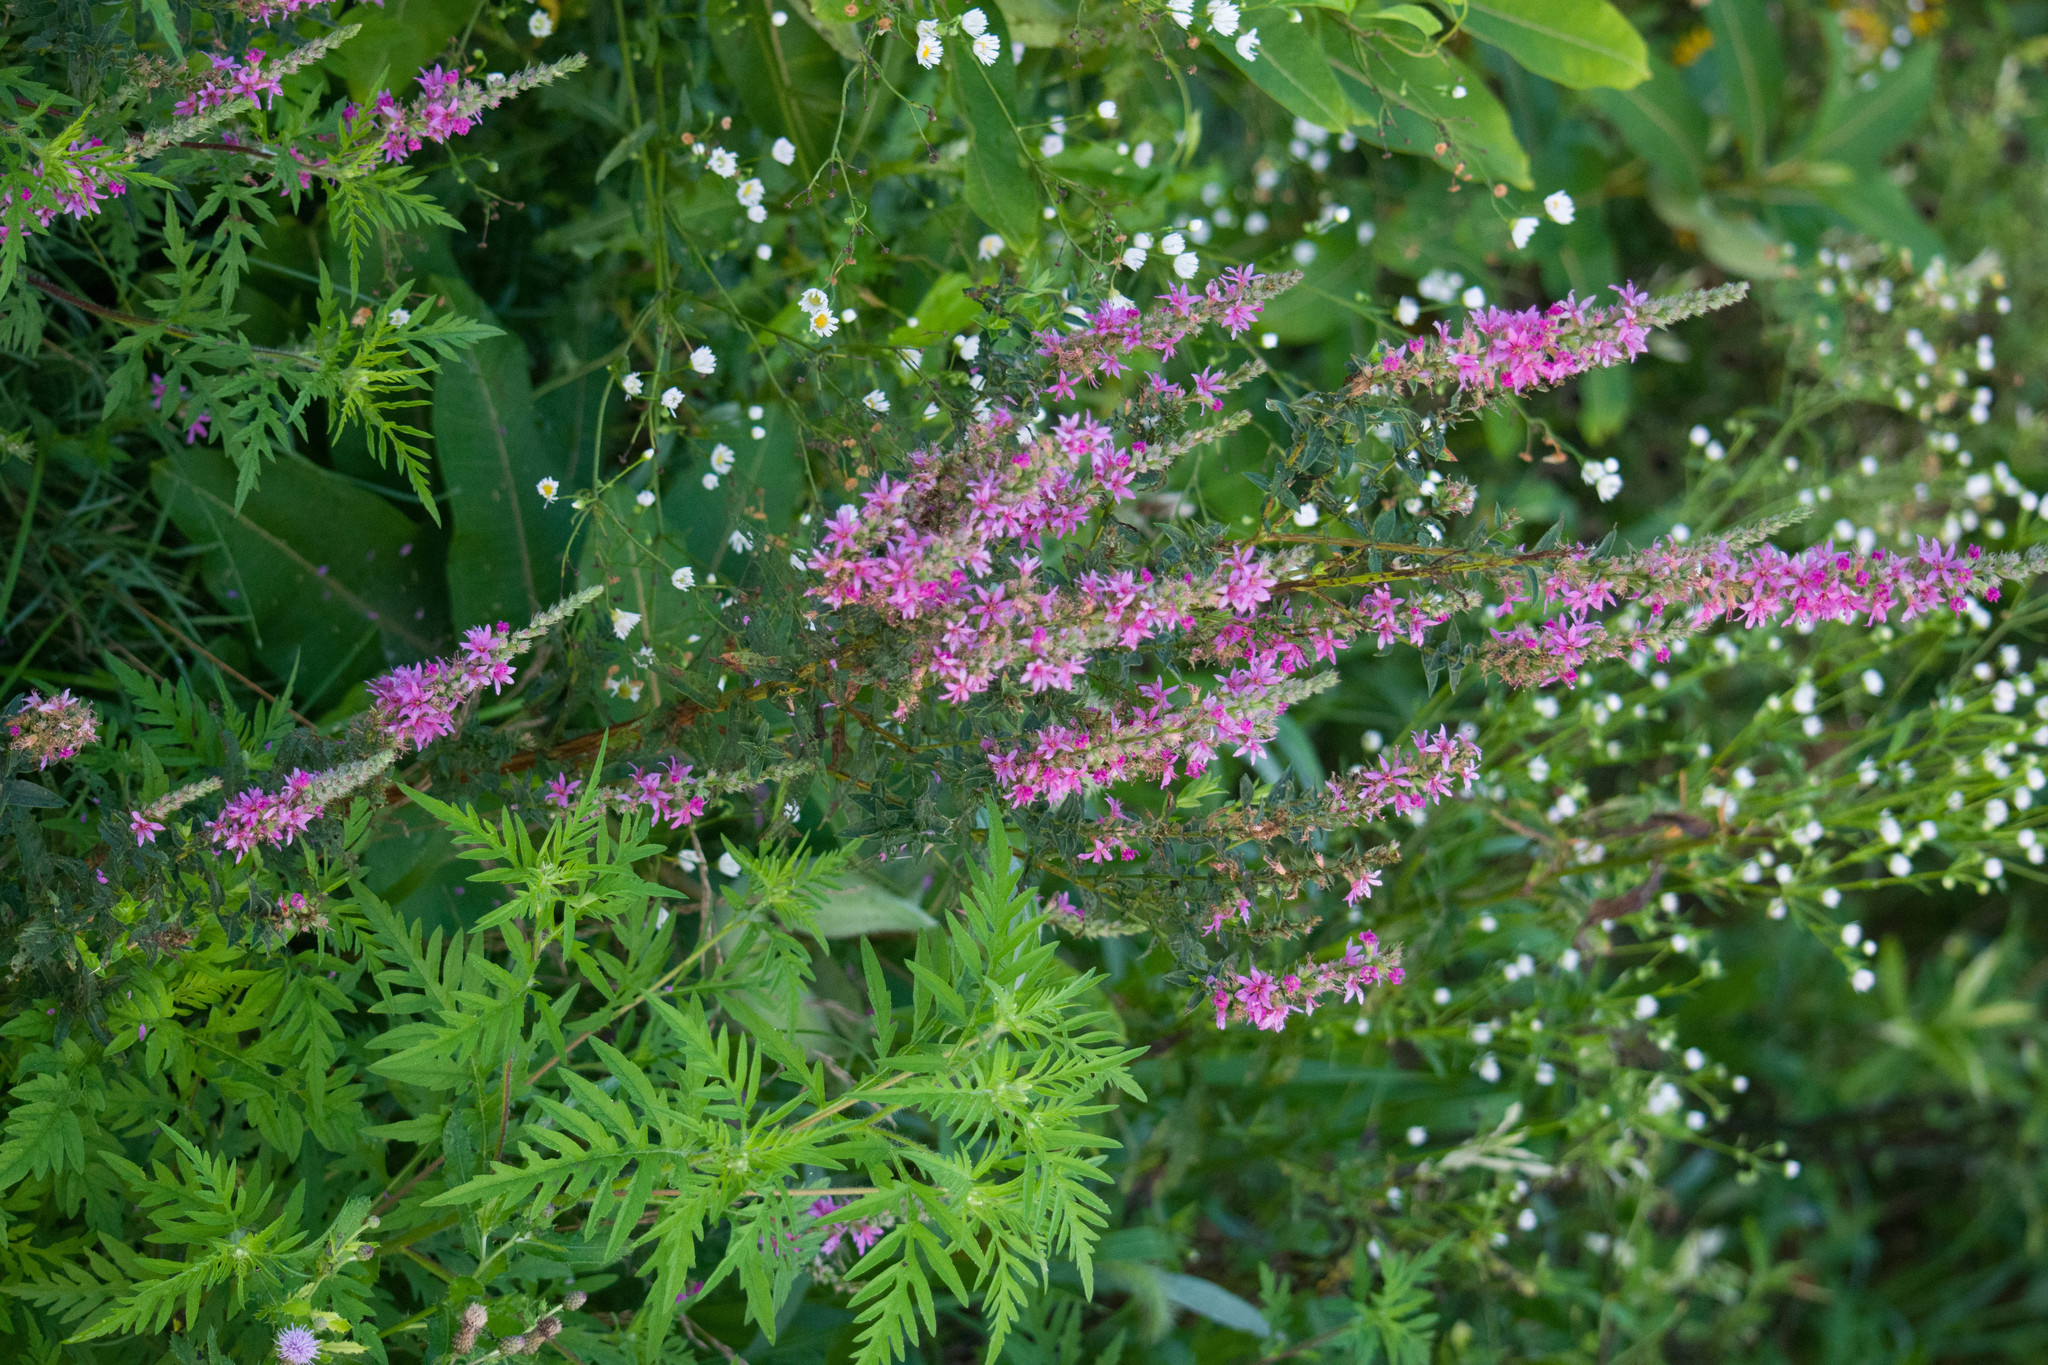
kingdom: Plantae
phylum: Tracheophyta
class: Magnoliopsida
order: Myrtales
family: Lythraceae
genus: Lythrum
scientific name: Lythrum salicaria
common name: Purple loosestrife
